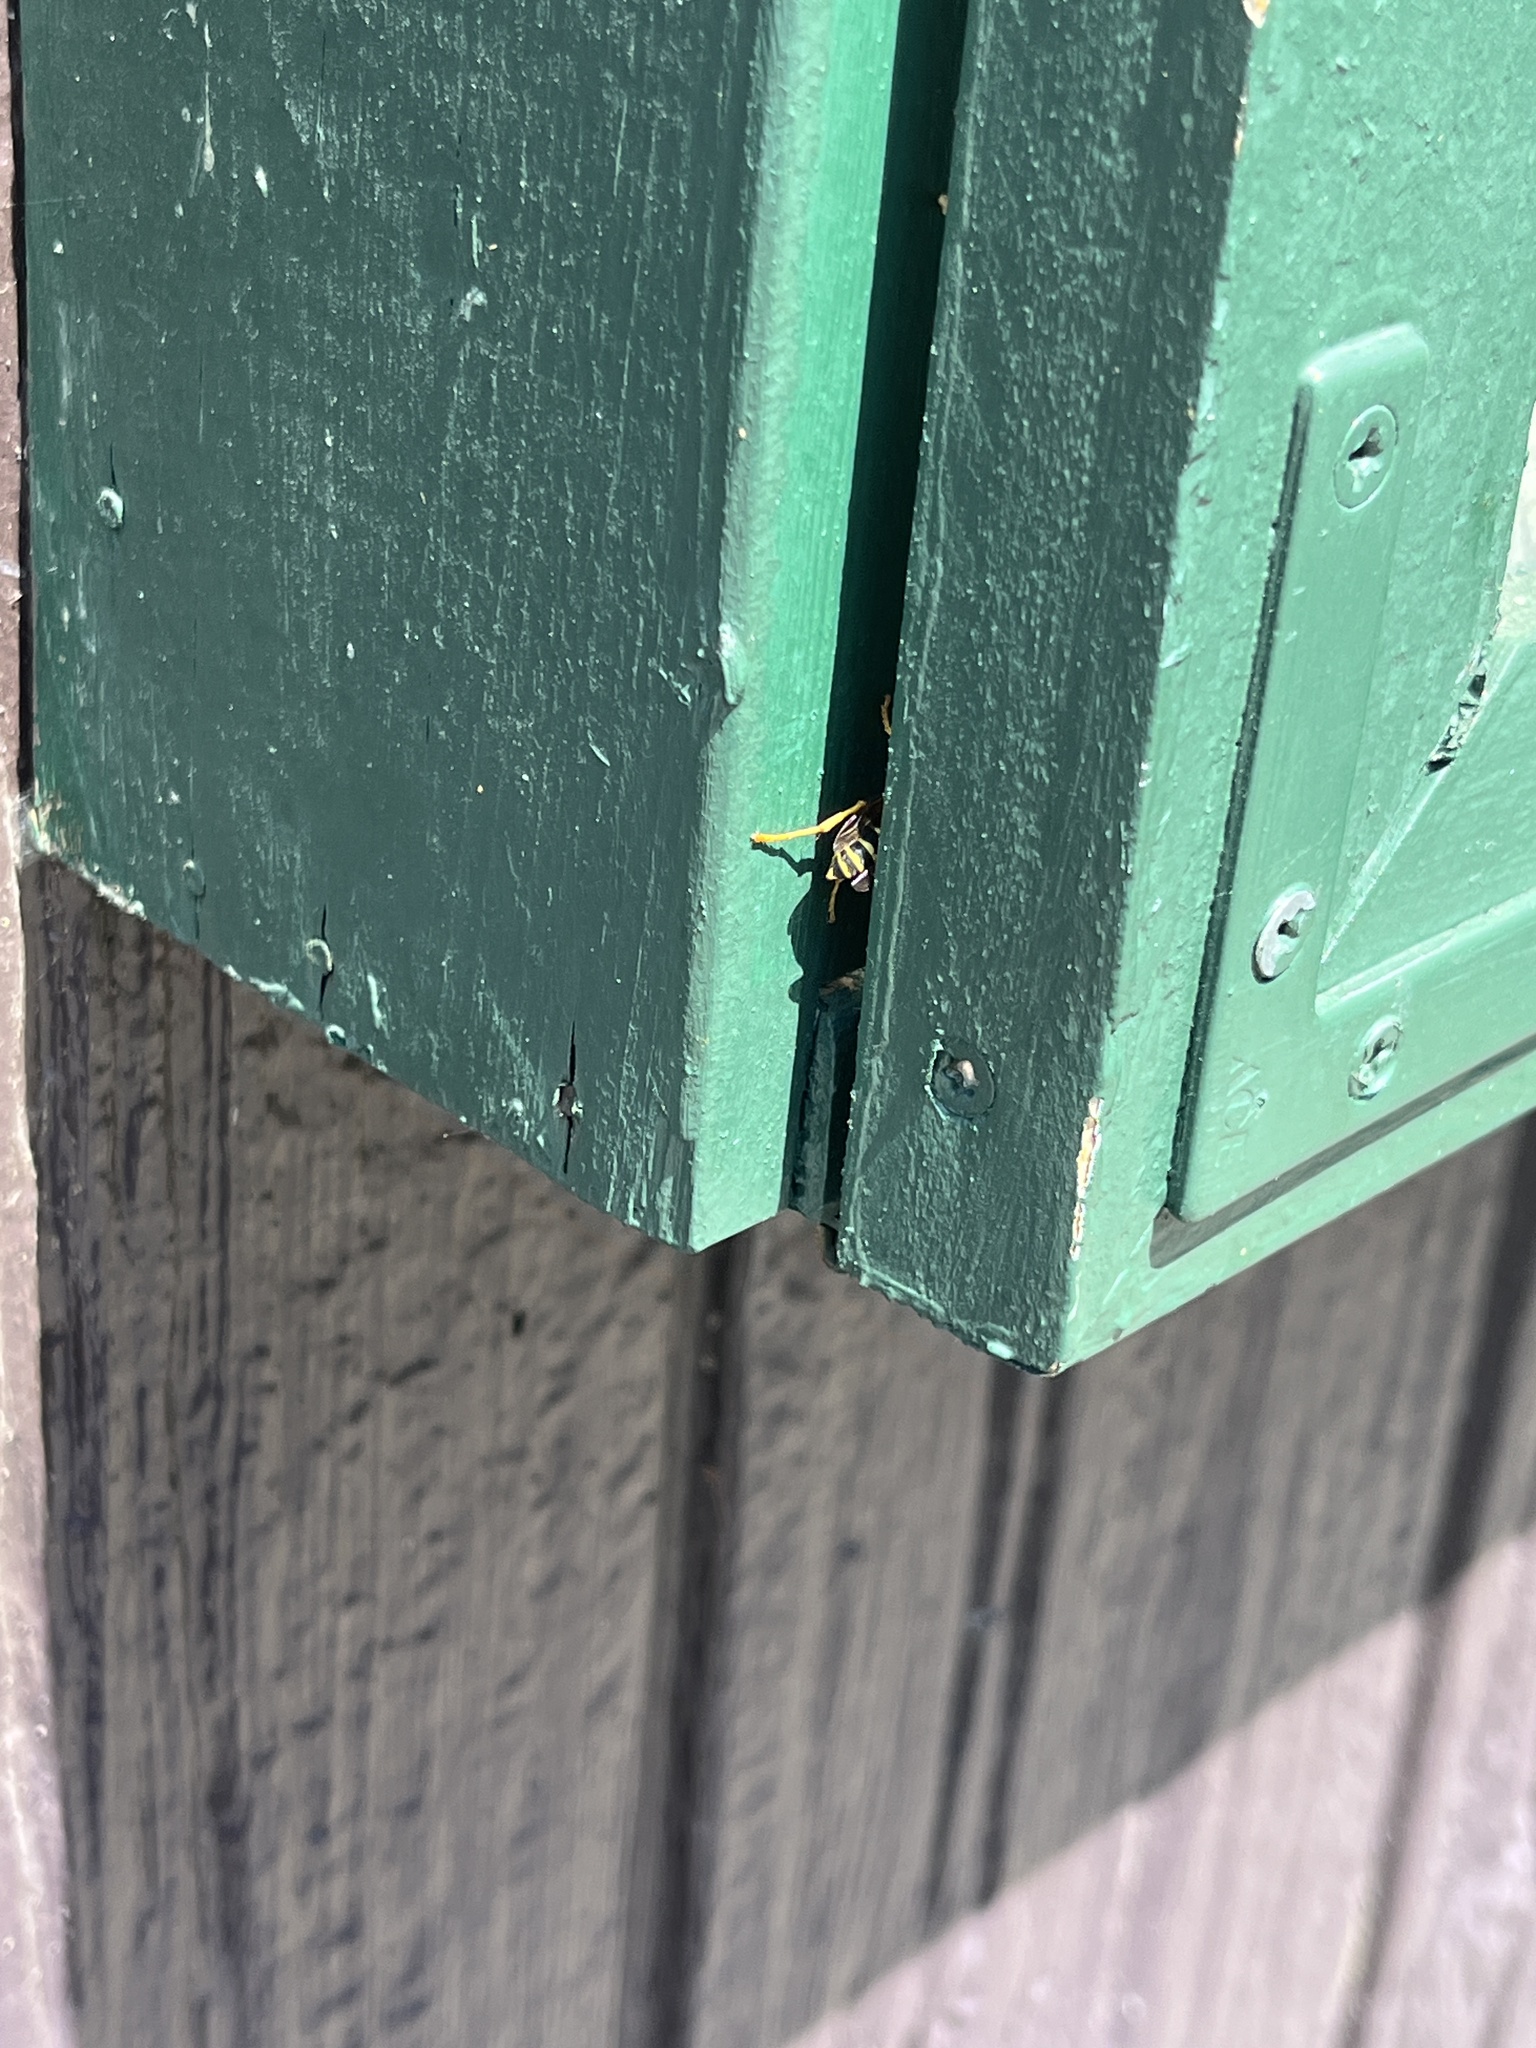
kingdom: Animalia
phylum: Arthropoda
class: Insecta
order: Hymenoptera
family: Eumenidae
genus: Polistes
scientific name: Polistes dominula
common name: Paper wasp
